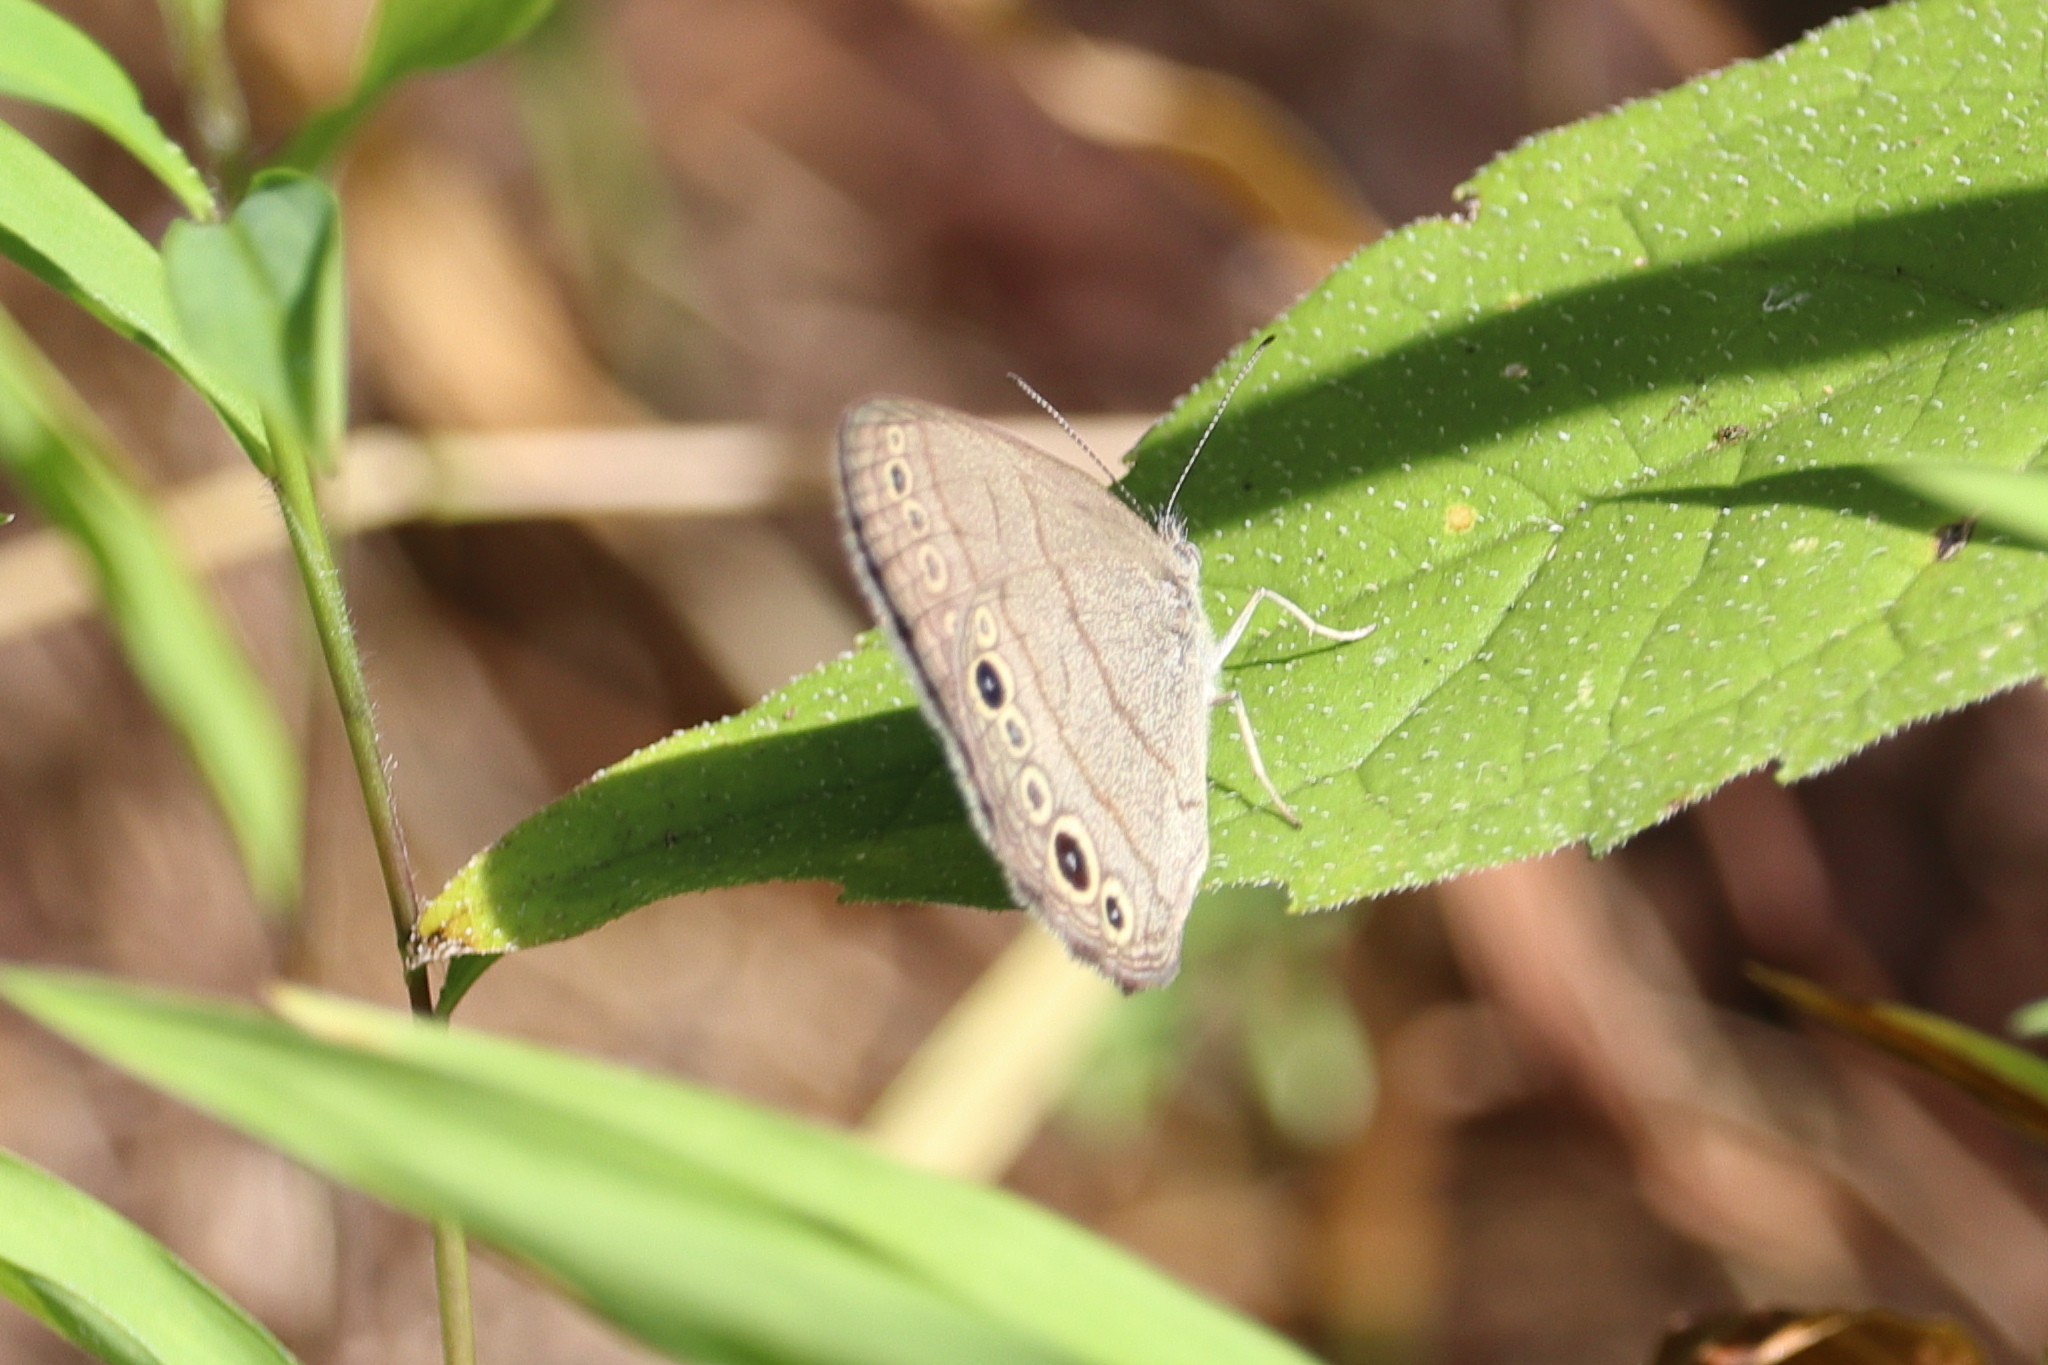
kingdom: Animalia
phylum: Arthropoda
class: Insecta
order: Lepidoptera
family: Nymphalidae
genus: Hermeuptychia
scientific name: Hermeuptychia hermes
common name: Hermes satyr
